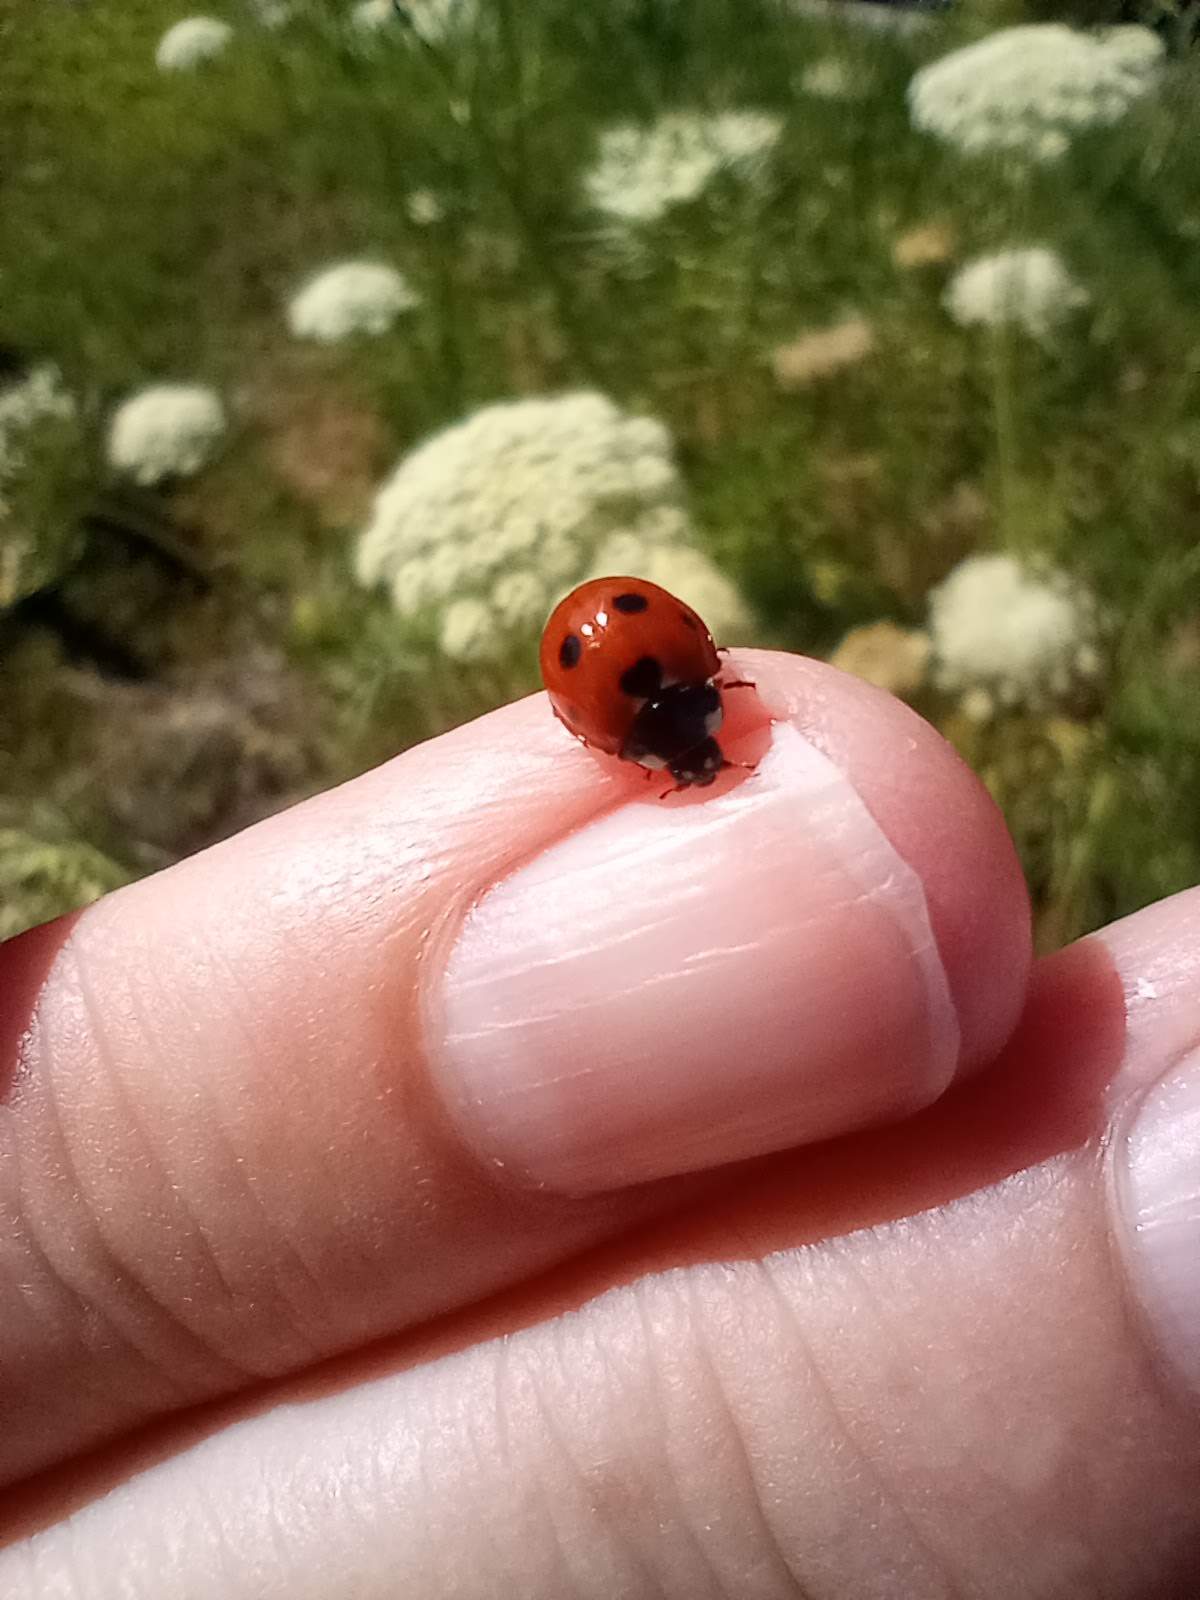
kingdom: Animalia
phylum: Arthropoda
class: Insecta
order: Coleoptera
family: Coccinellidae
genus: Coccinella
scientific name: Coccinella septempunctata
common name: Sevenspotted lady beetle
